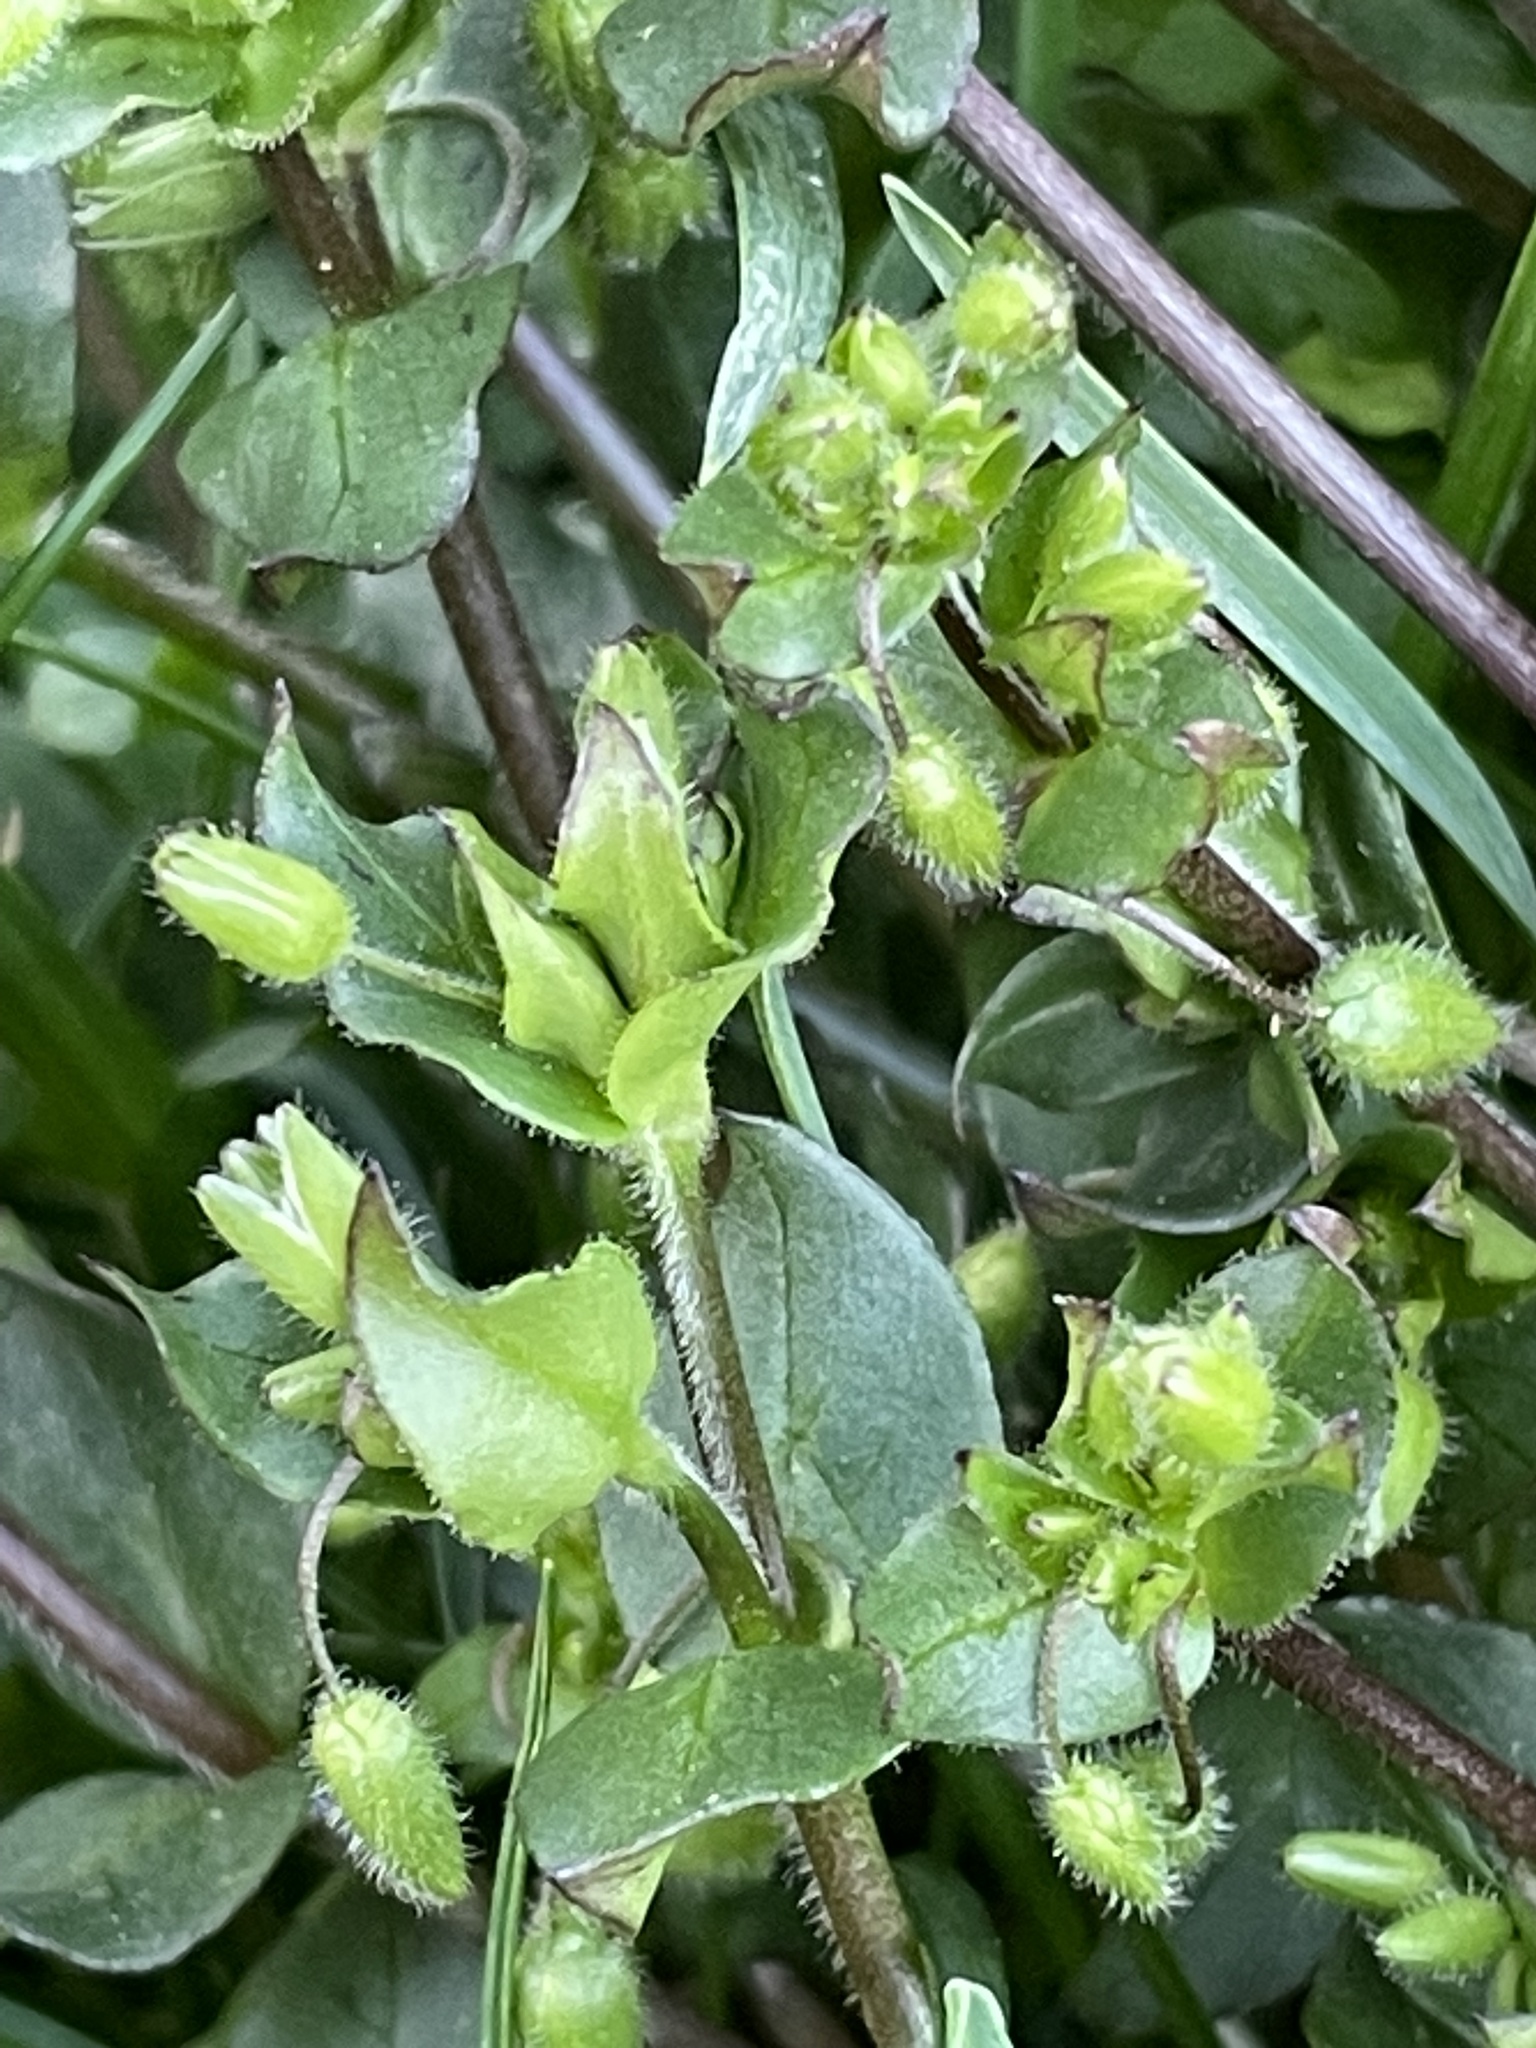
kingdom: Plantae
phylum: Tracheophyta
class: Magnoliopsida
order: Caryophyllales
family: Caryophyllaceae
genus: Stellaria
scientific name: Stellaria media
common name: Common chickweed
